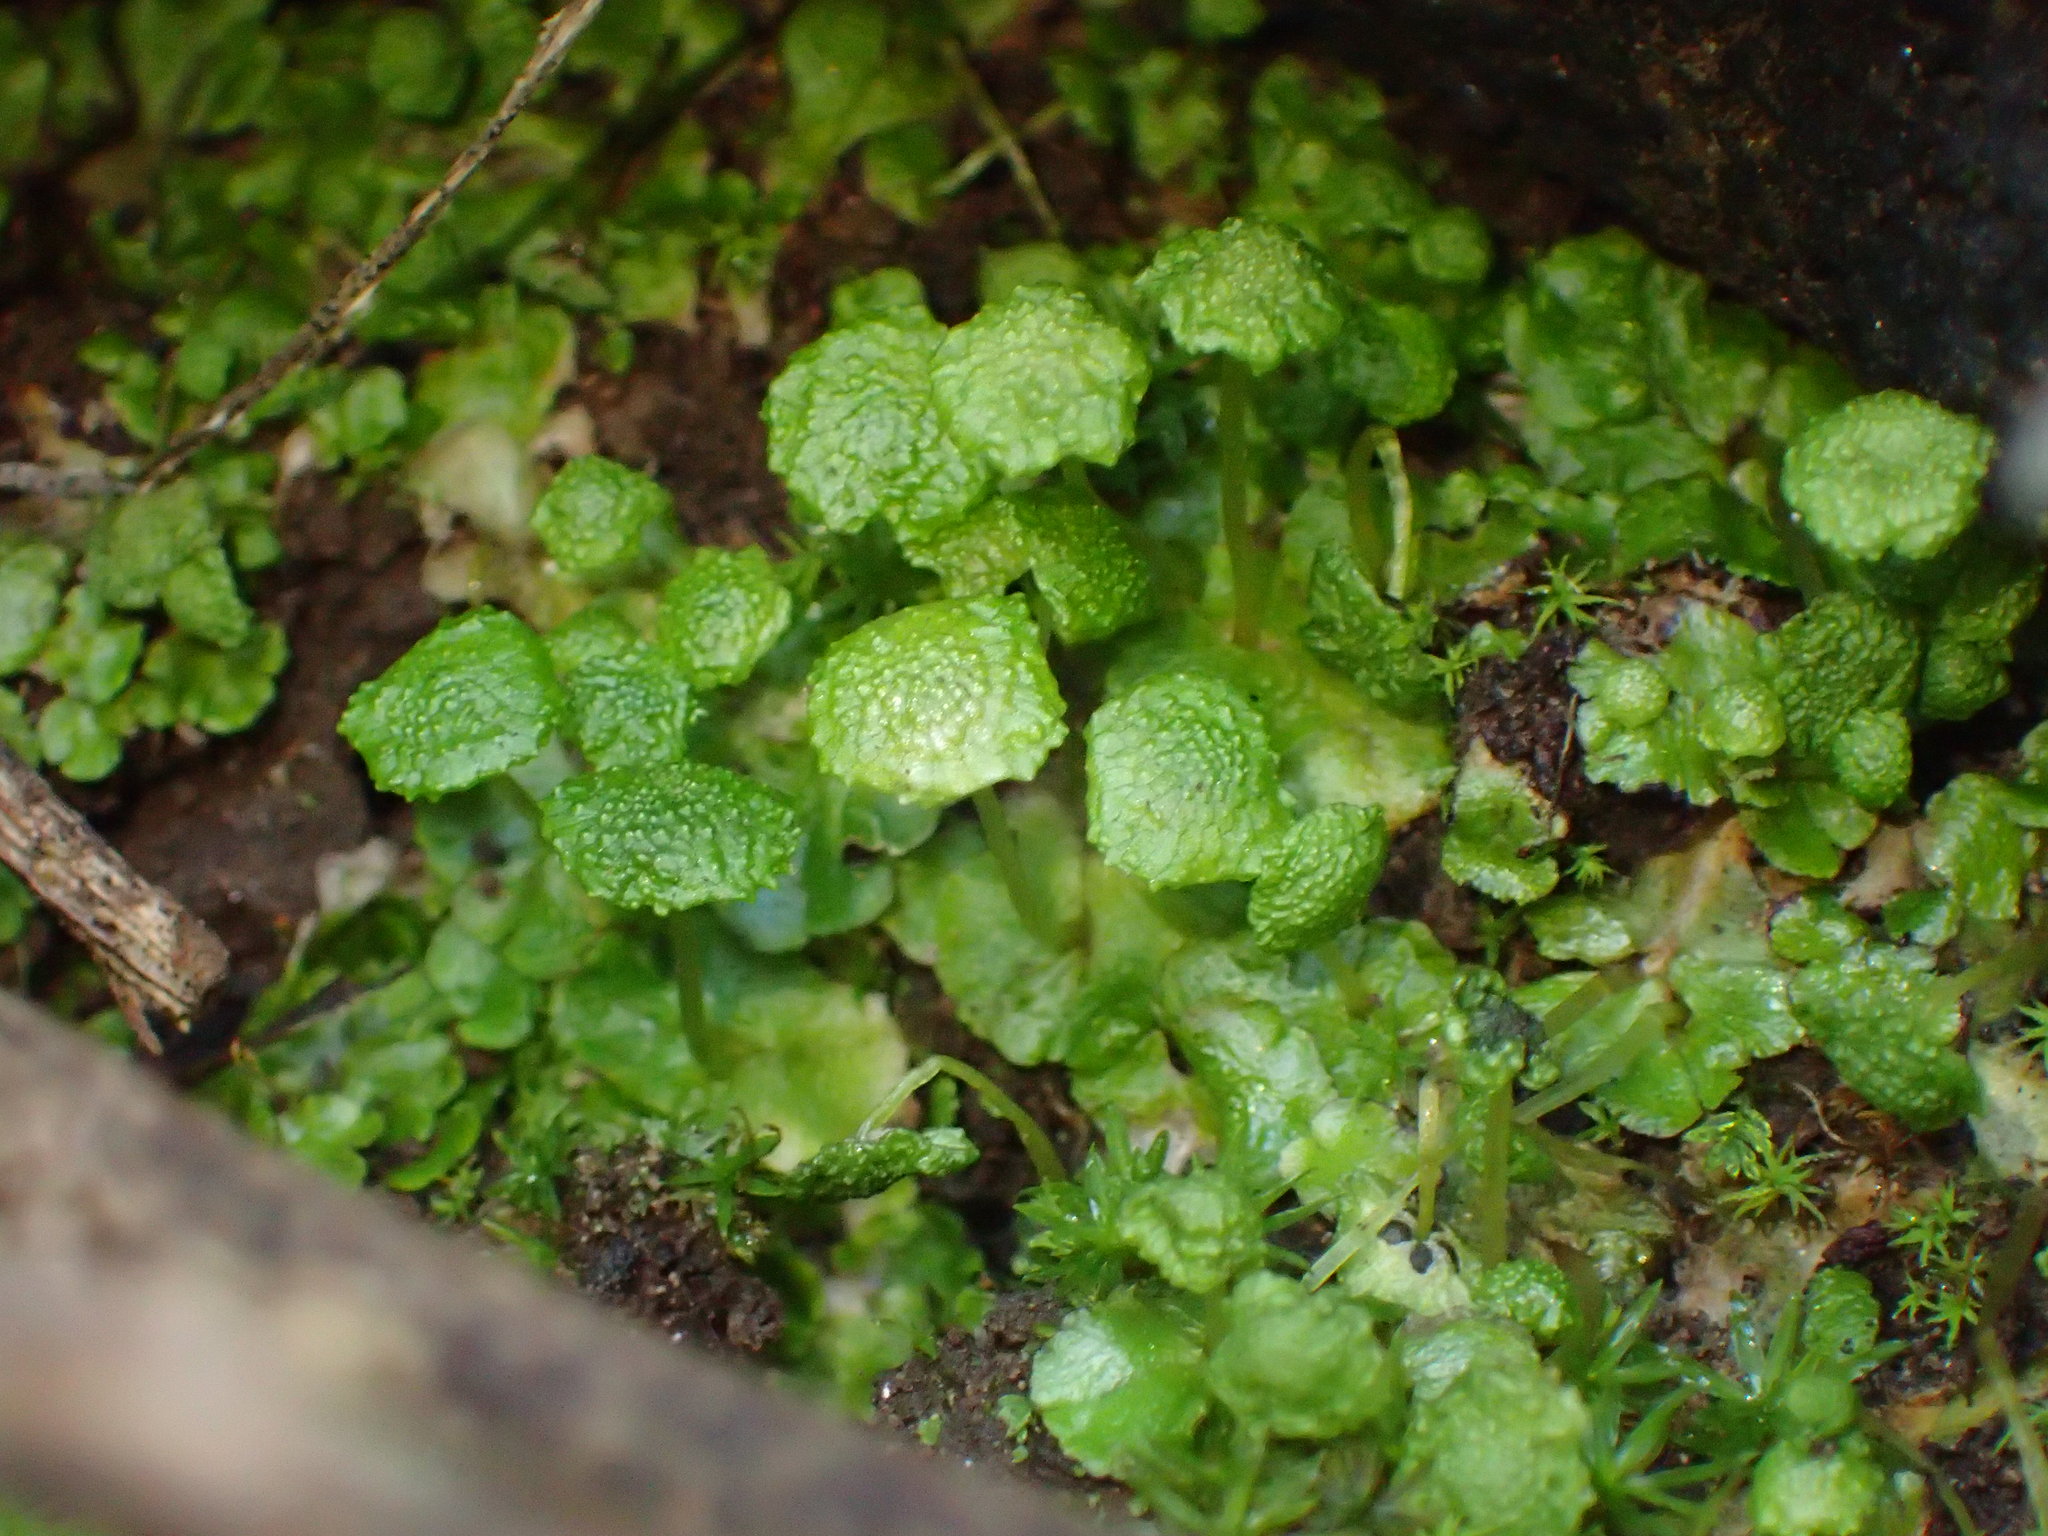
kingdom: Plantae
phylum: Marchantiophyta
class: Marchantiopsida
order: Marchantiales
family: Aytoniaceae
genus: Cryptomitrium
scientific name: Cryptomitrium tenerum
